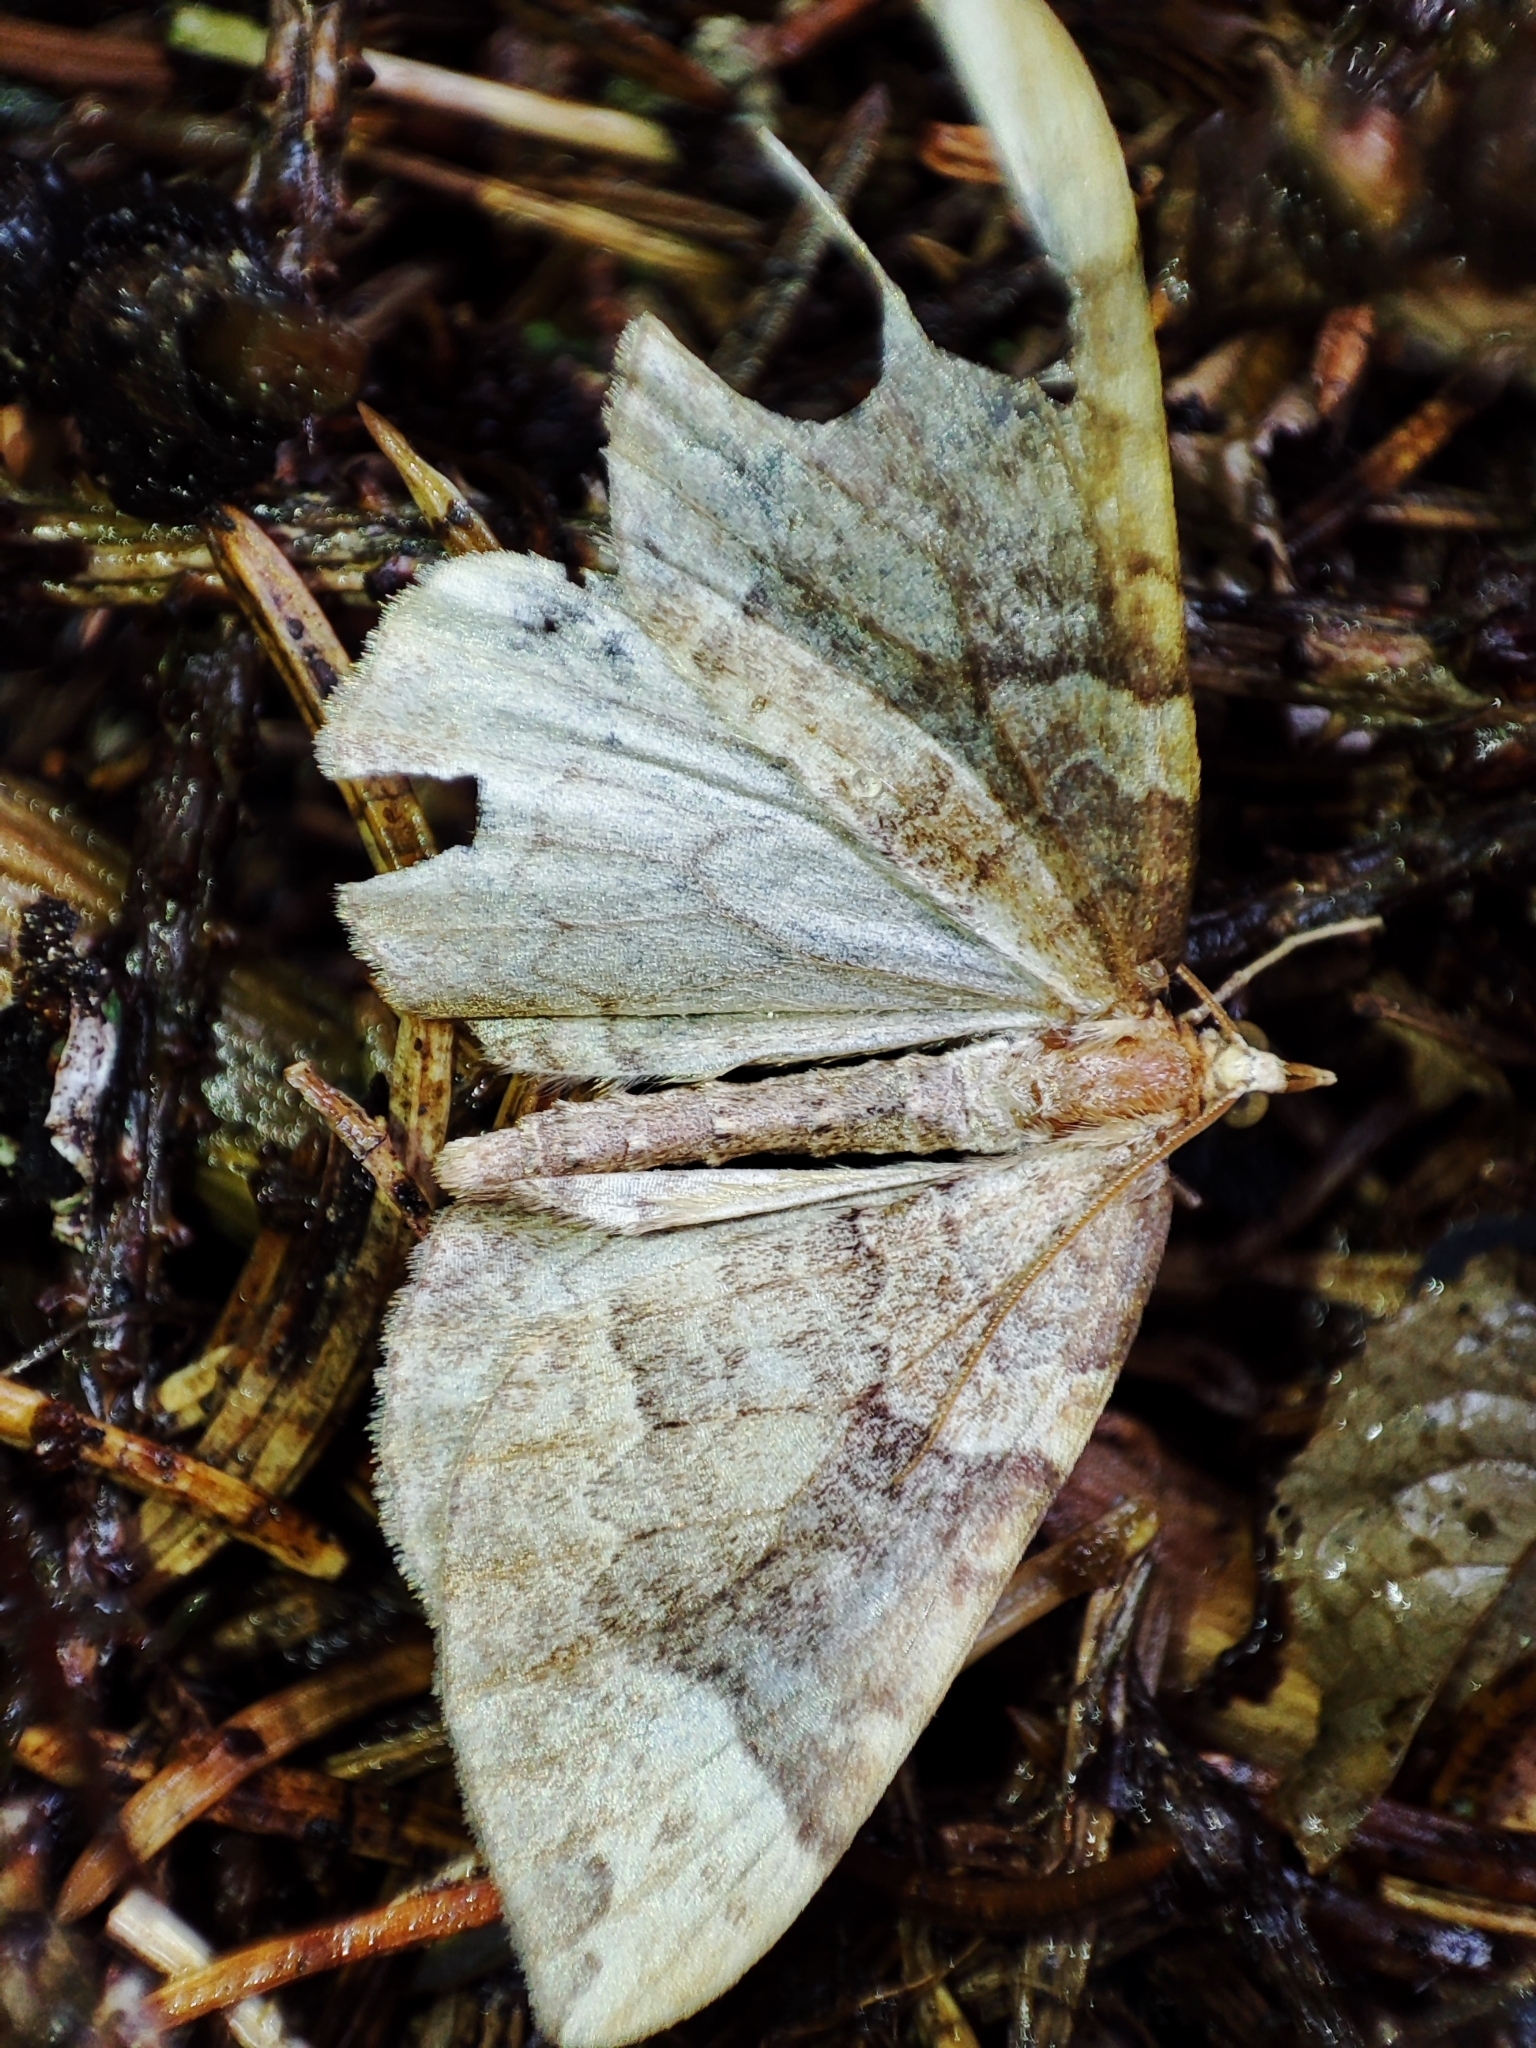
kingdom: Animalia
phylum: Arthropoda
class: Insecta
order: Lepidoptera
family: Geometridae
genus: Eulithis
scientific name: Eulithis populata
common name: Northern spinach
